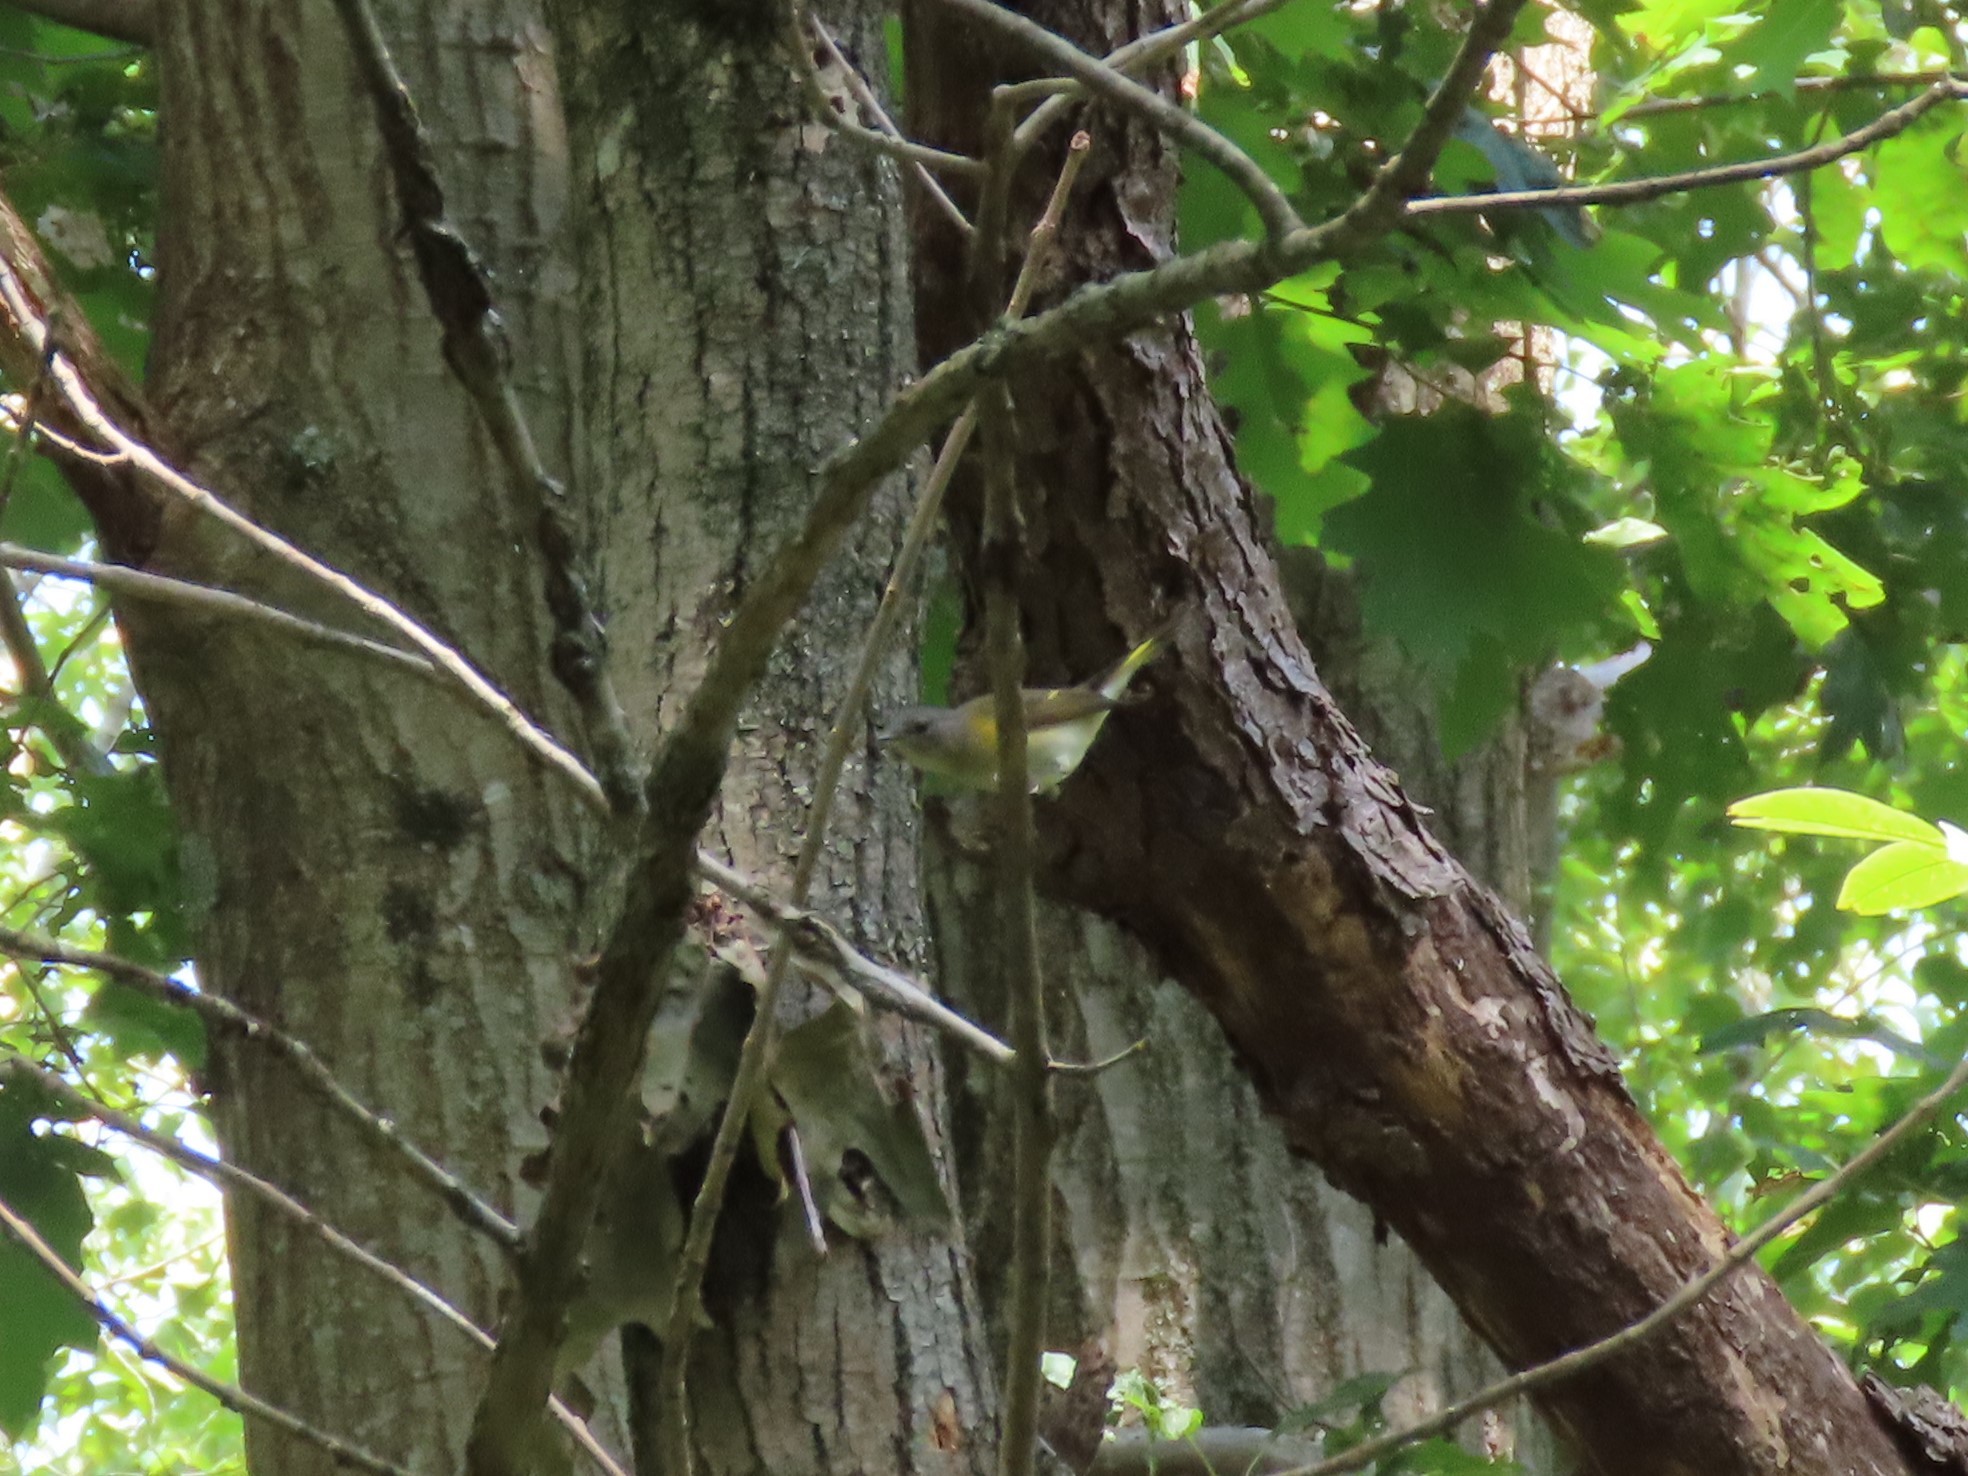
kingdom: Animalia
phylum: Chordata
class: Aves
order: Passeriformes
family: Parulidae
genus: Setophaga
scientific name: Setophaga ruticilla
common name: American redstart
